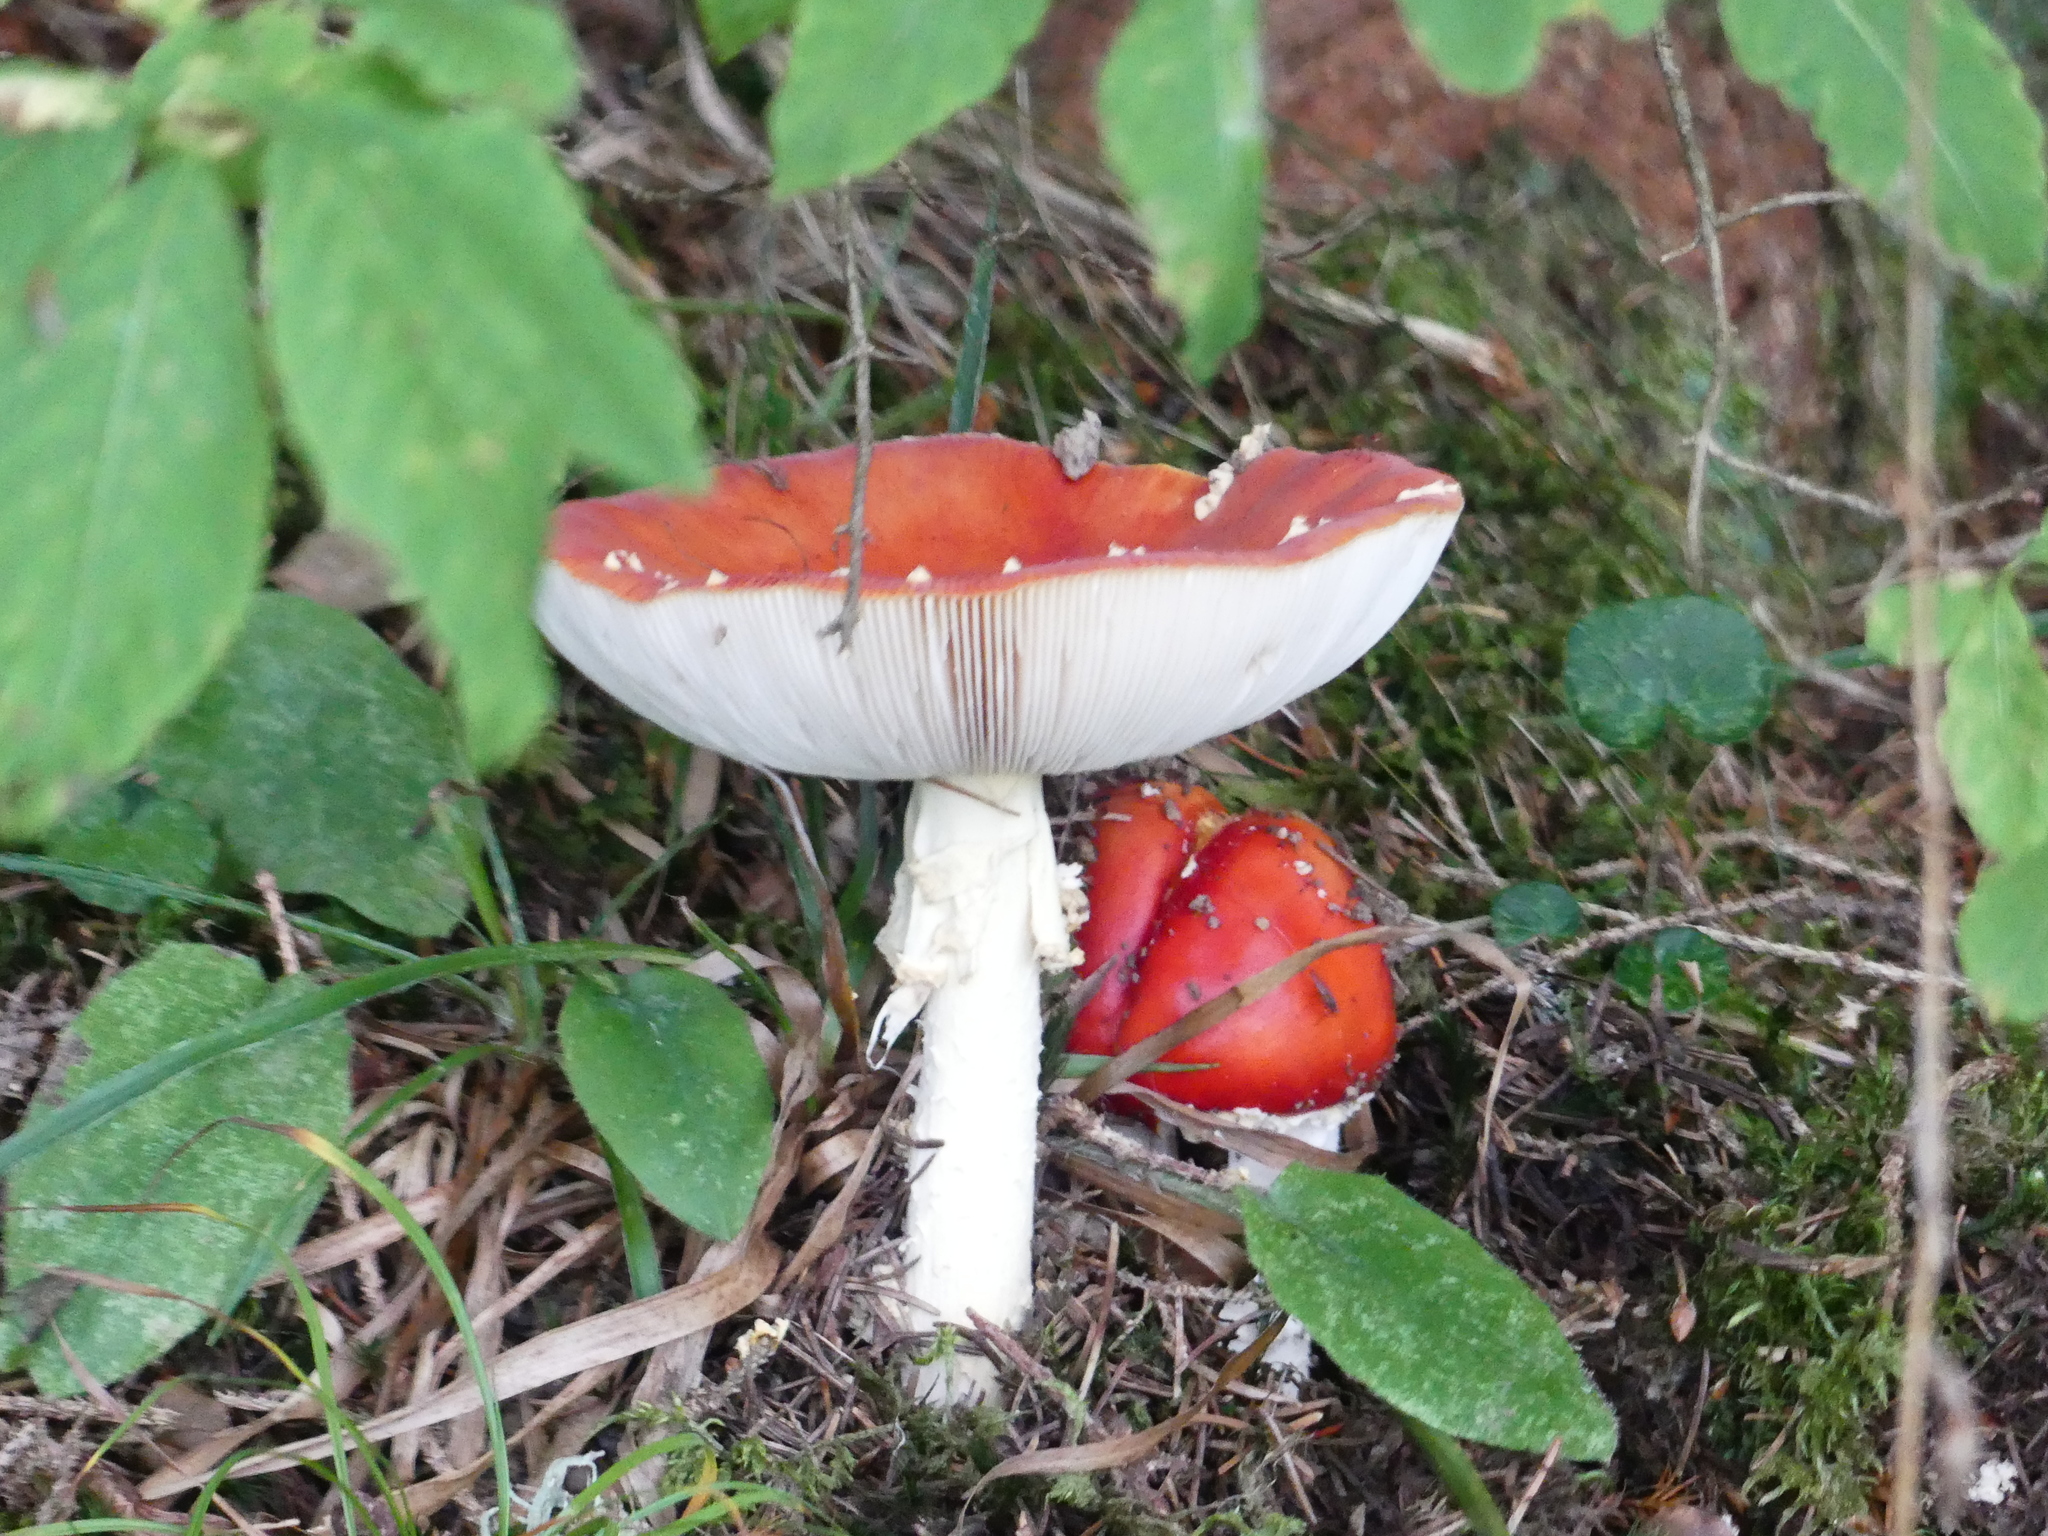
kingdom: Fungi
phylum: Basidiomycota
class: Agaricomycetes
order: Agaricales
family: Amanitaceae
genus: Amanita
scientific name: Amanita muscaria
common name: Fly agaric
